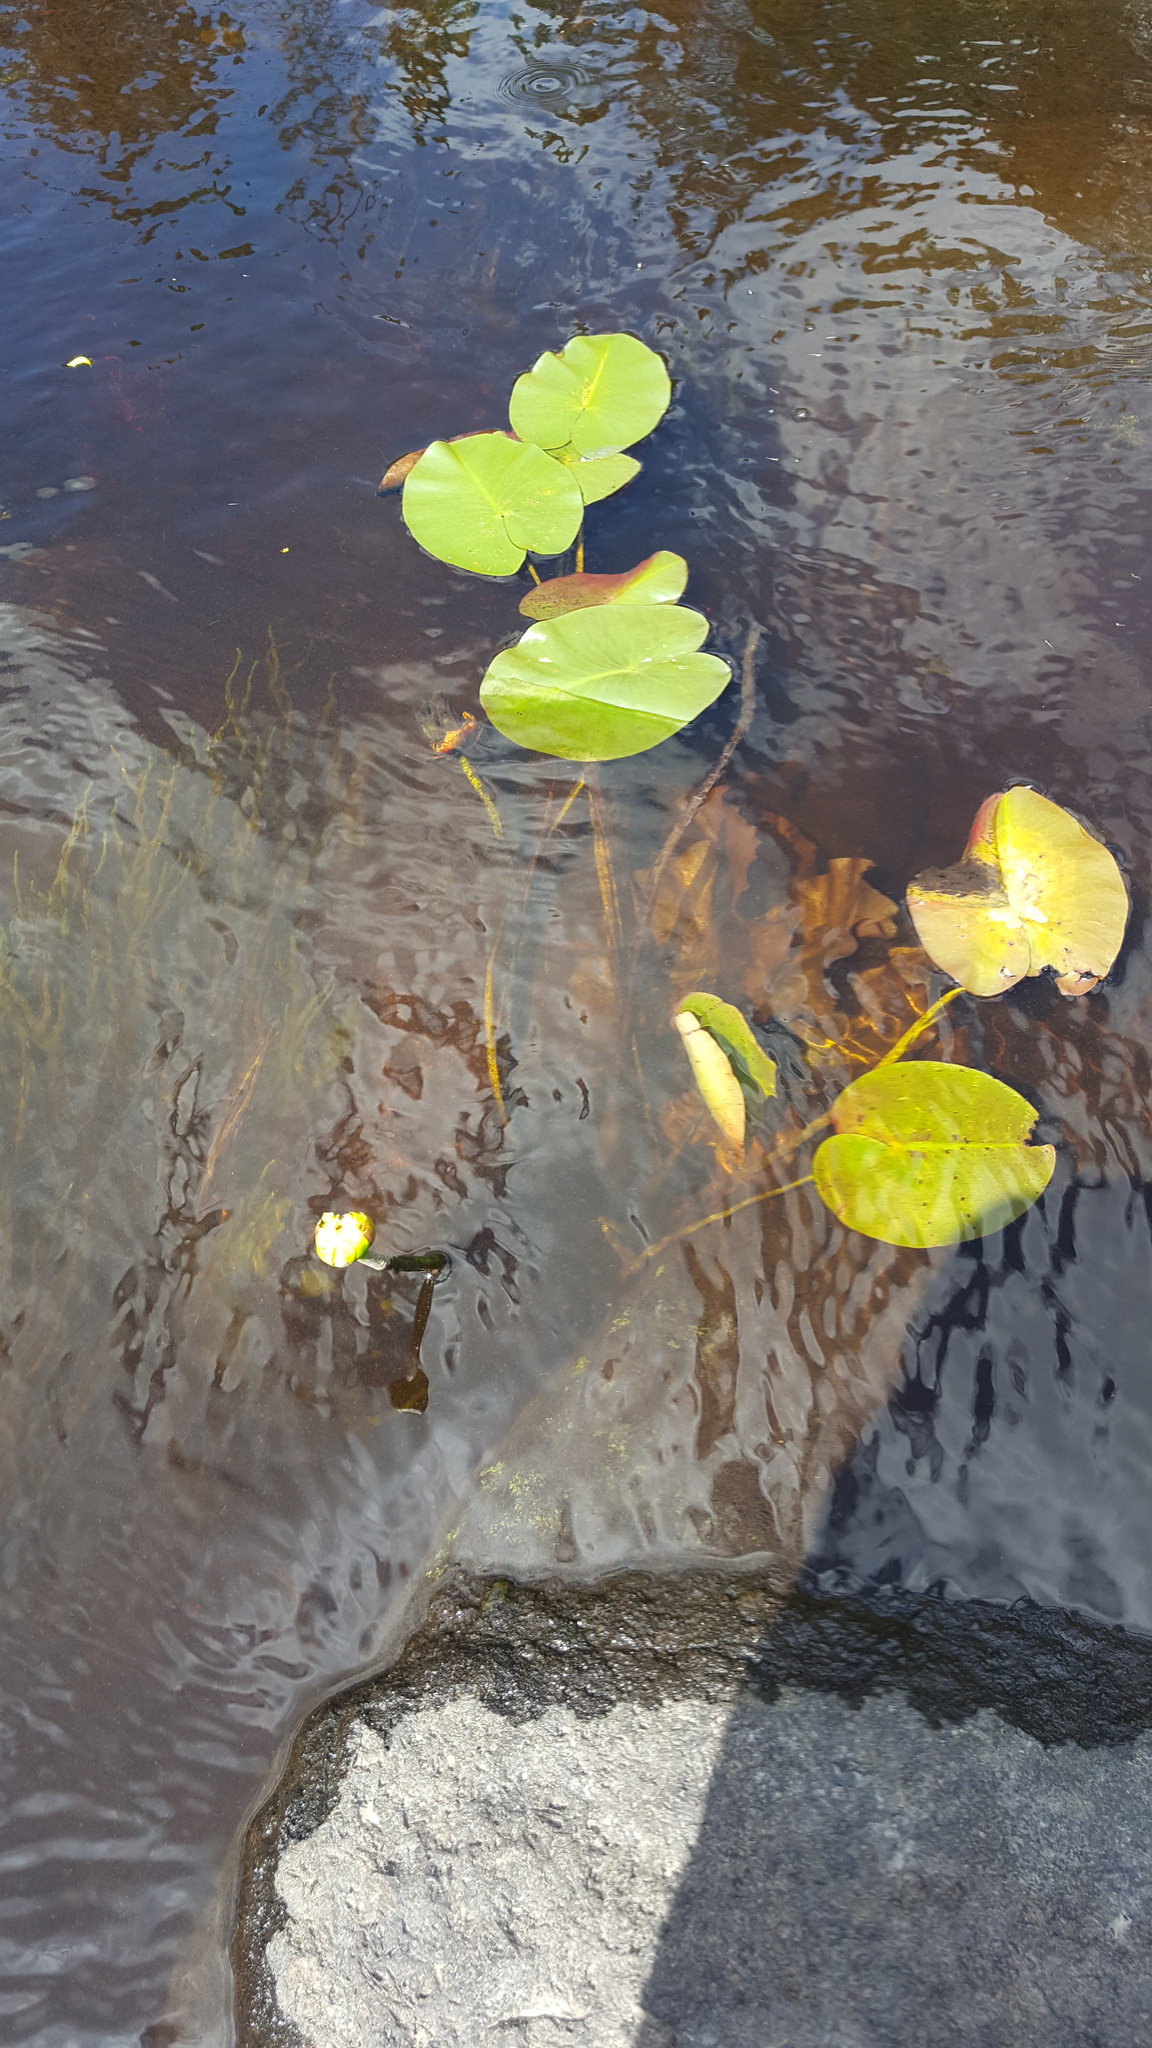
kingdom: Plantae
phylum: Tracheophyta
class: Magnoliopsida
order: Nymphaeales
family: Nymphaeaceae
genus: Nuphar
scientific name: Nuphar variegata
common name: Beaver-root
